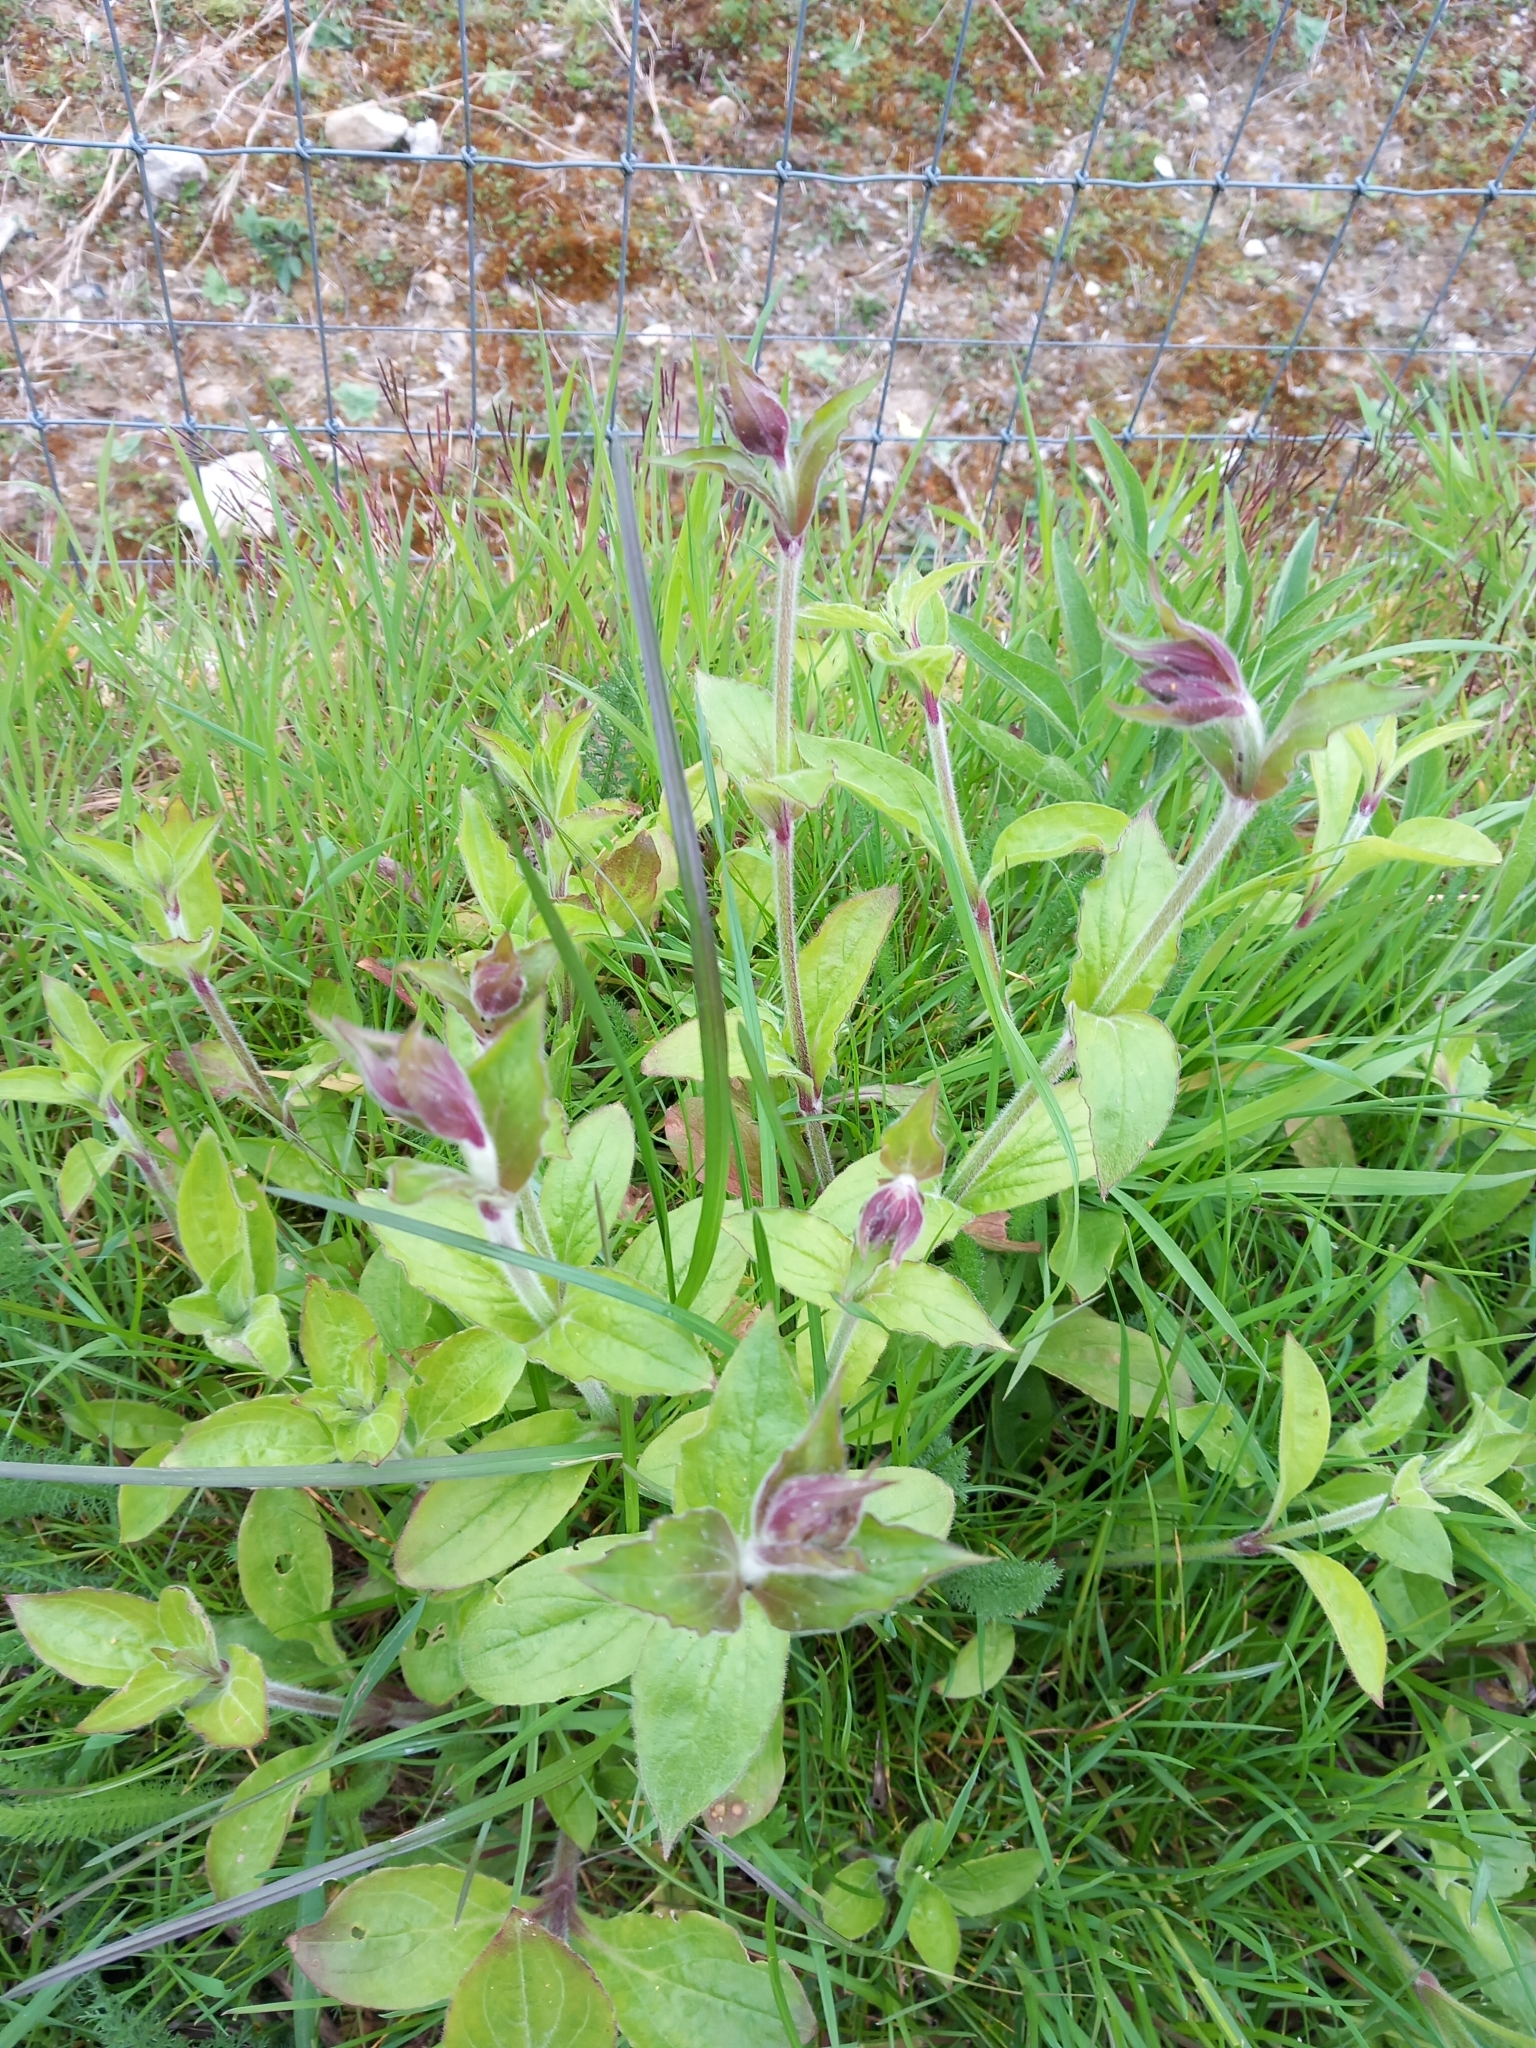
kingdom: Plantae
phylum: Tracheophyta
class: Magnoliopsida
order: Caryophyllales
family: Caryophyllaceae
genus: Silene
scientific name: Silene dioica
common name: Red campion
